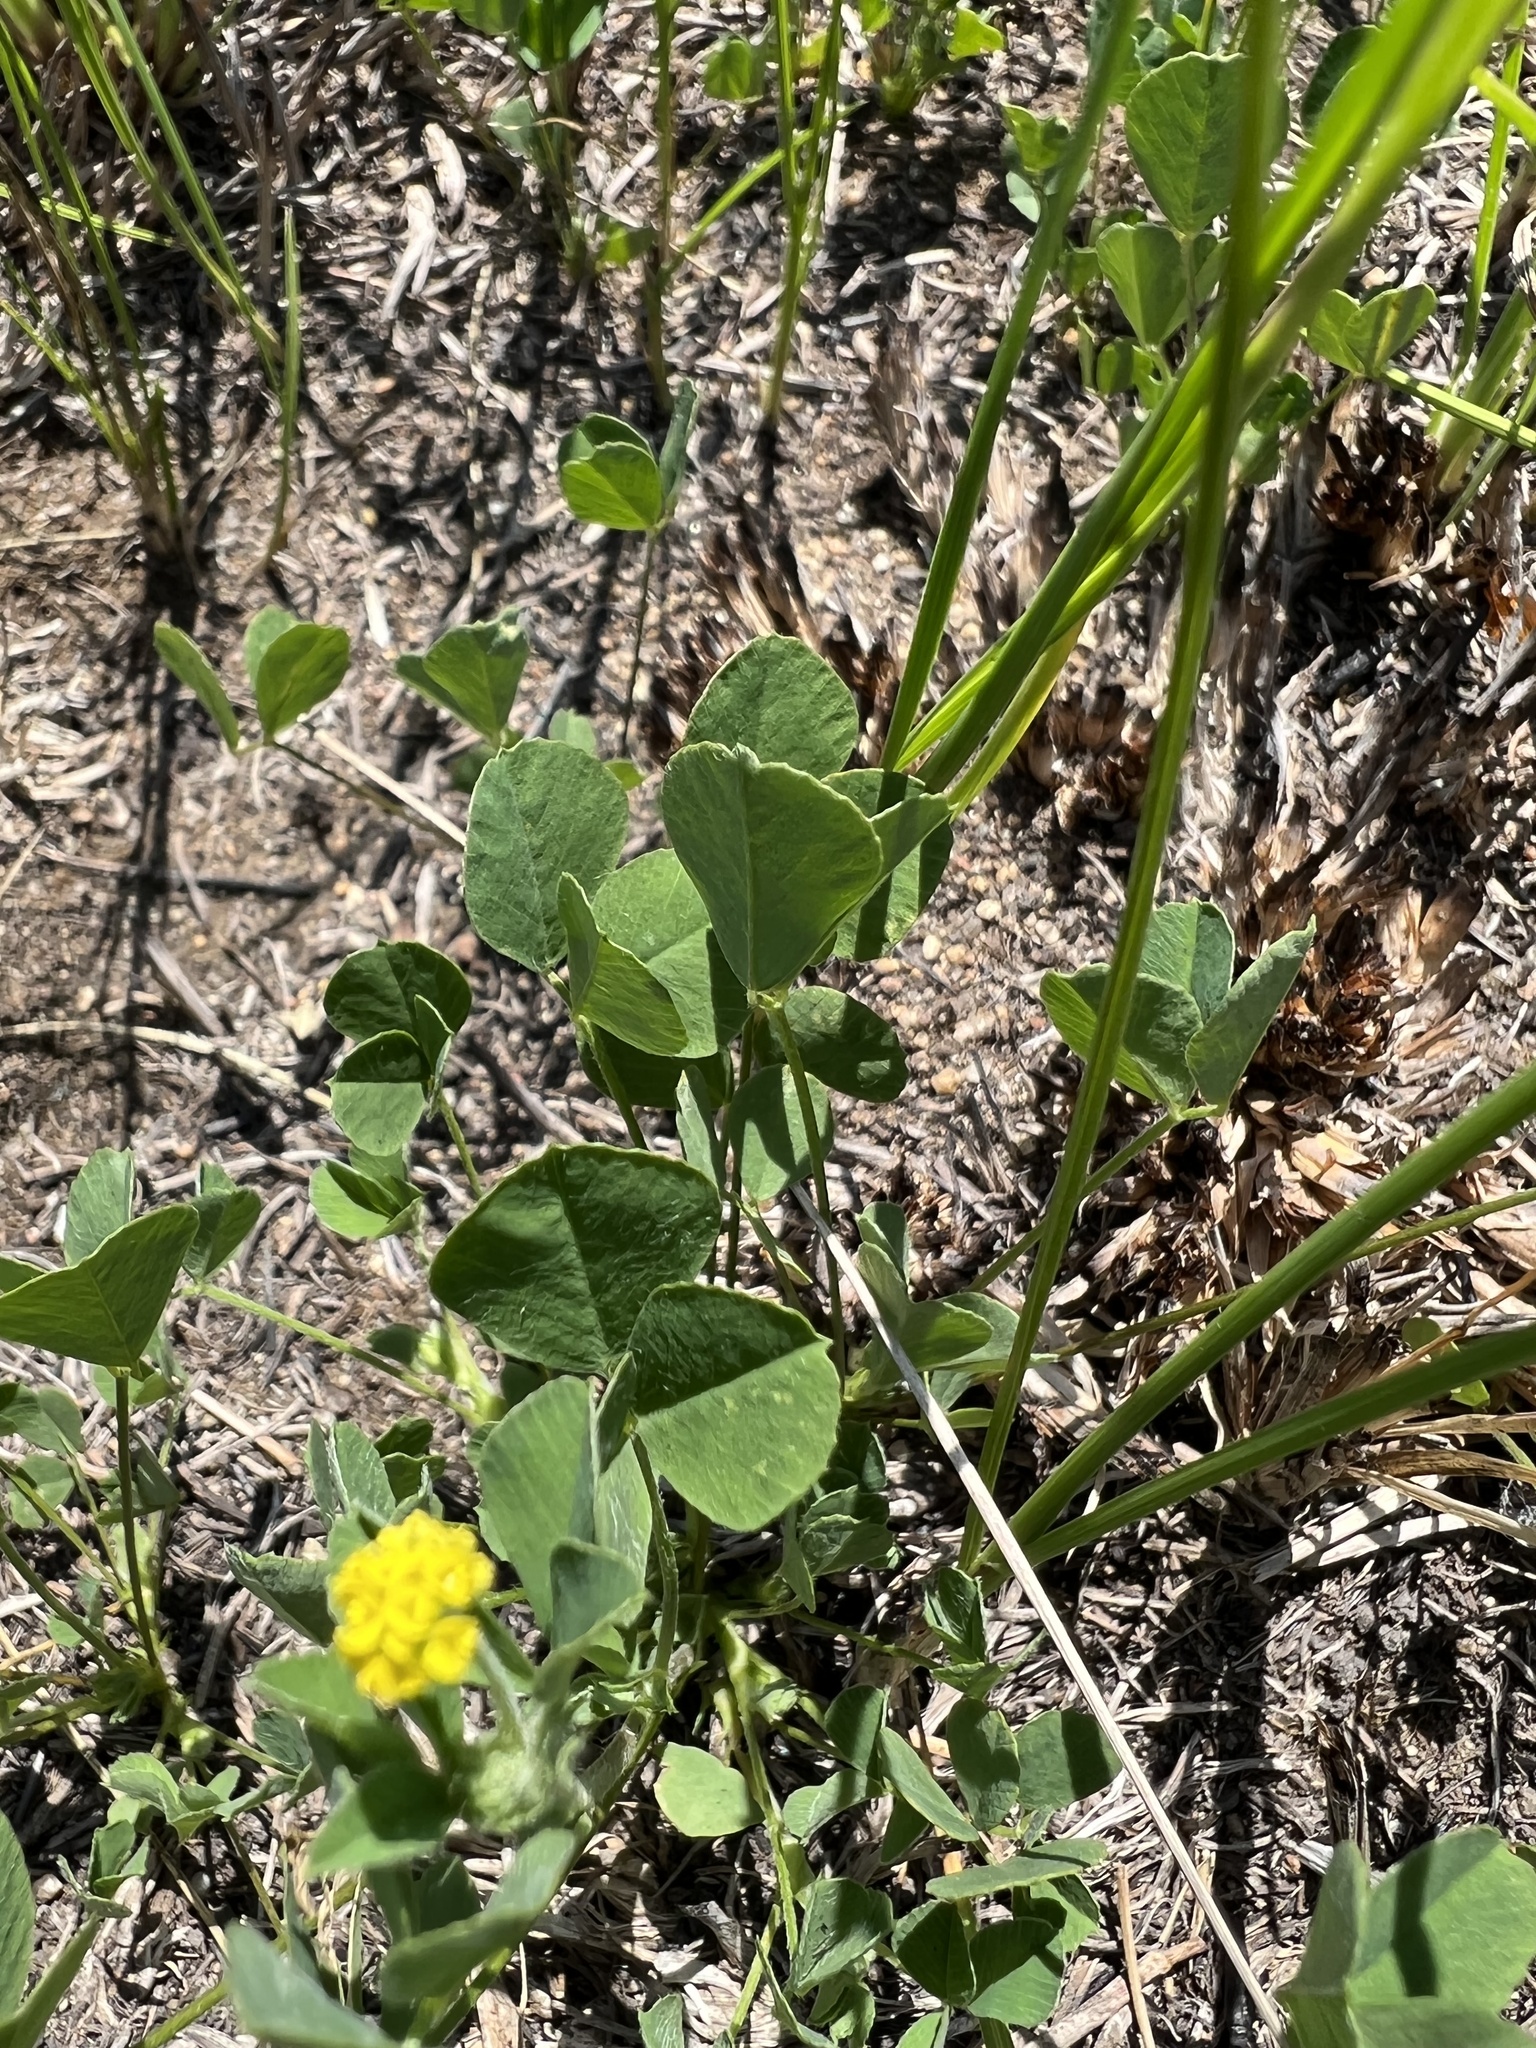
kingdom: Plantae
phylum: Tracheophyta
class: Magnoliopsida
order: Fabales
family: Fabaceae
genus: Medicago
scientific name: Medicago lupulina
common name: Black medick
